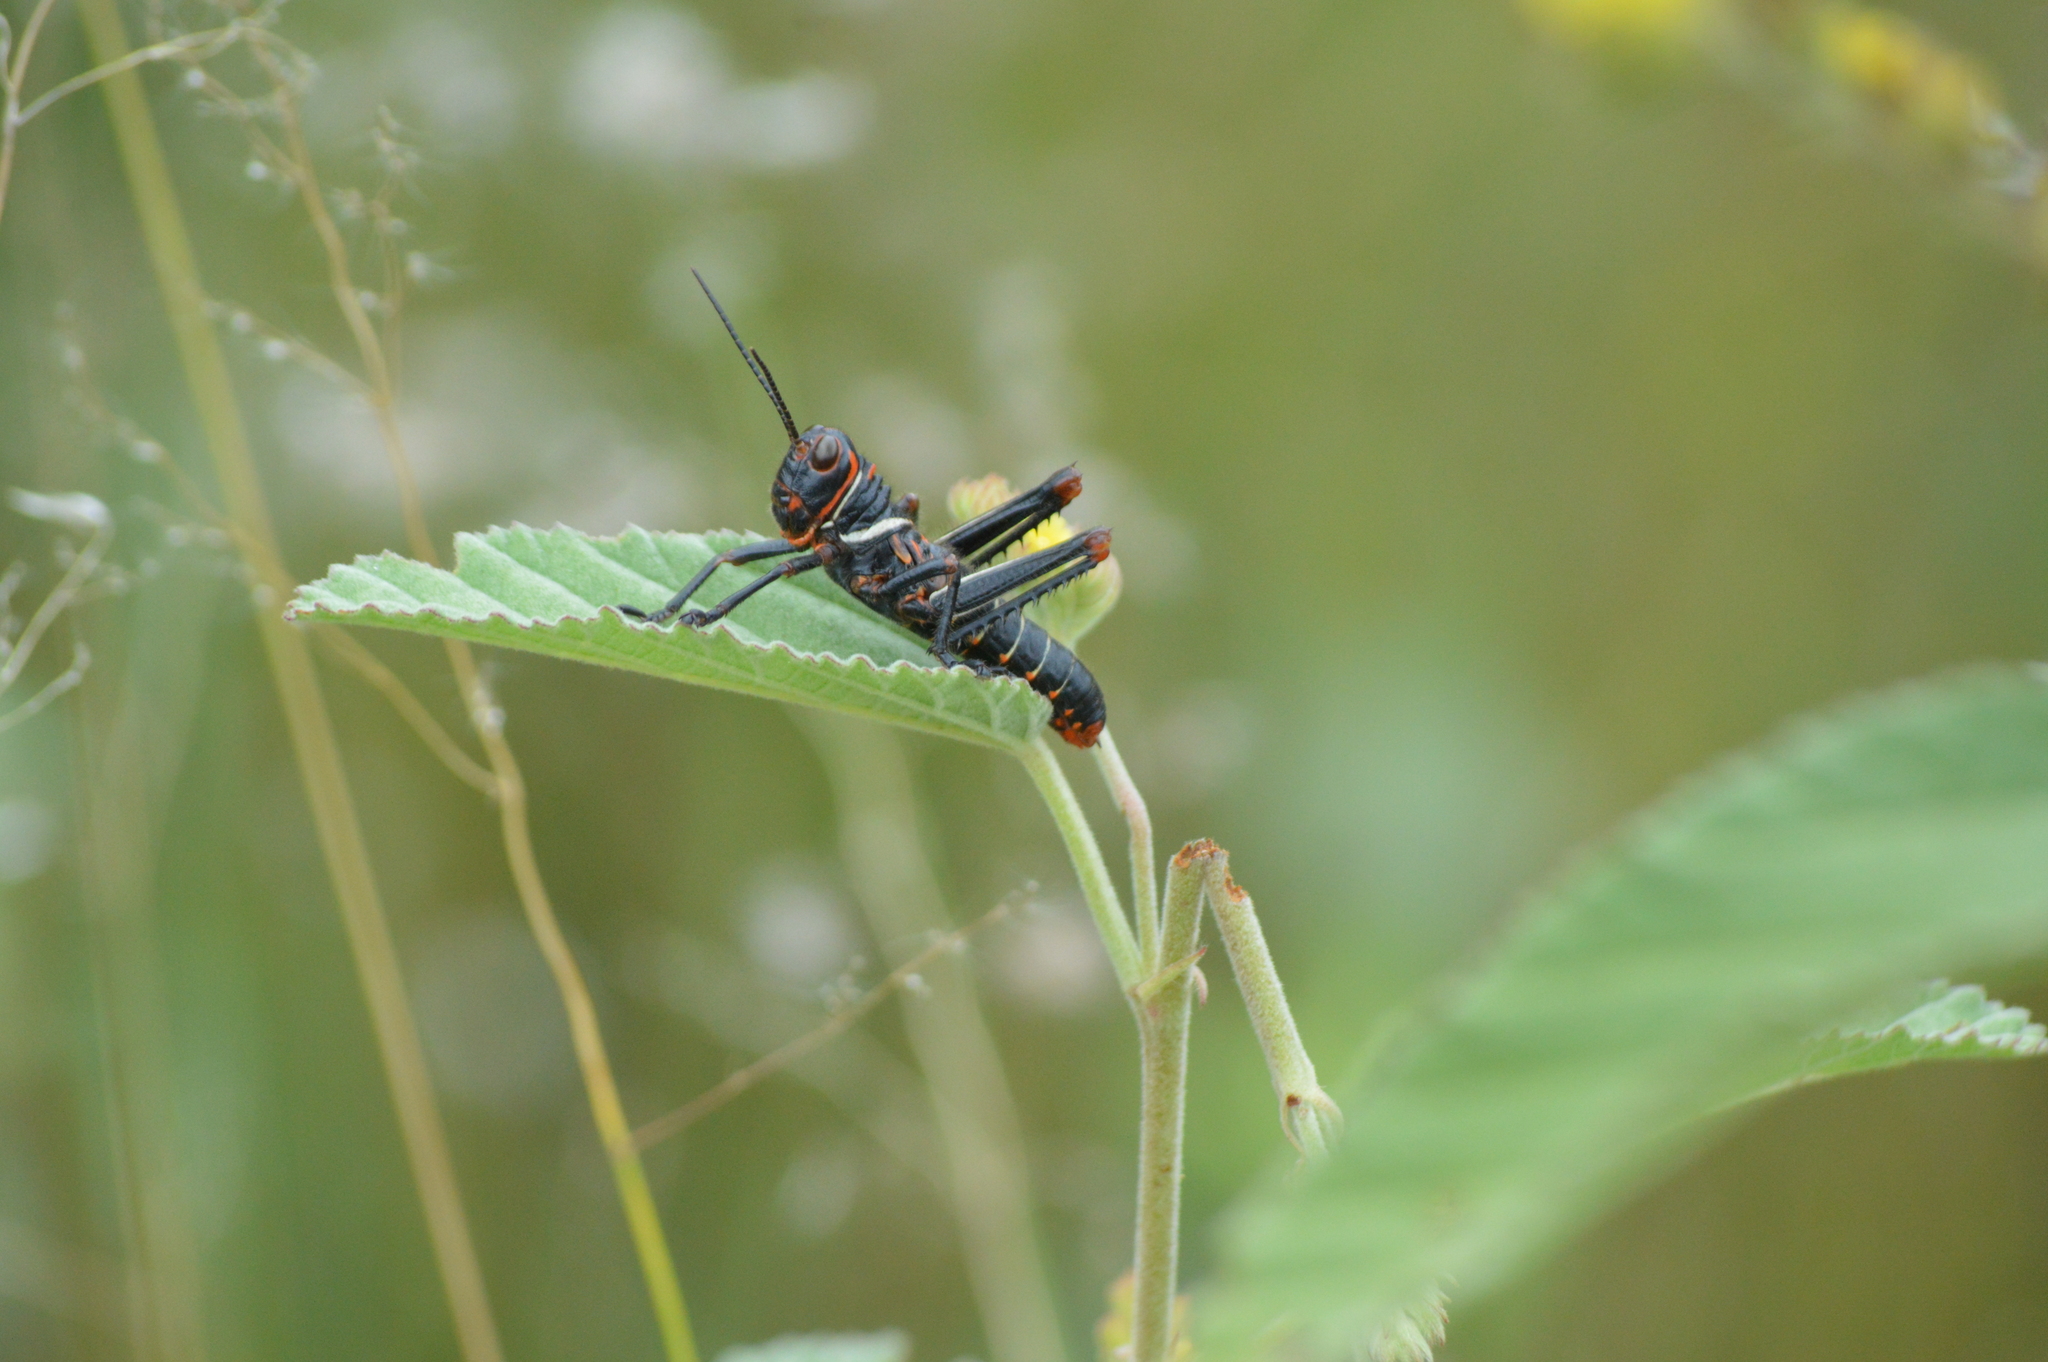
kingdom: Animalia
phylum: Arthropoda
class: Insecta
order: Orthoptera
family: Romaleidae
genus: Tropidacris
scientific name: Tropidacris collaris
